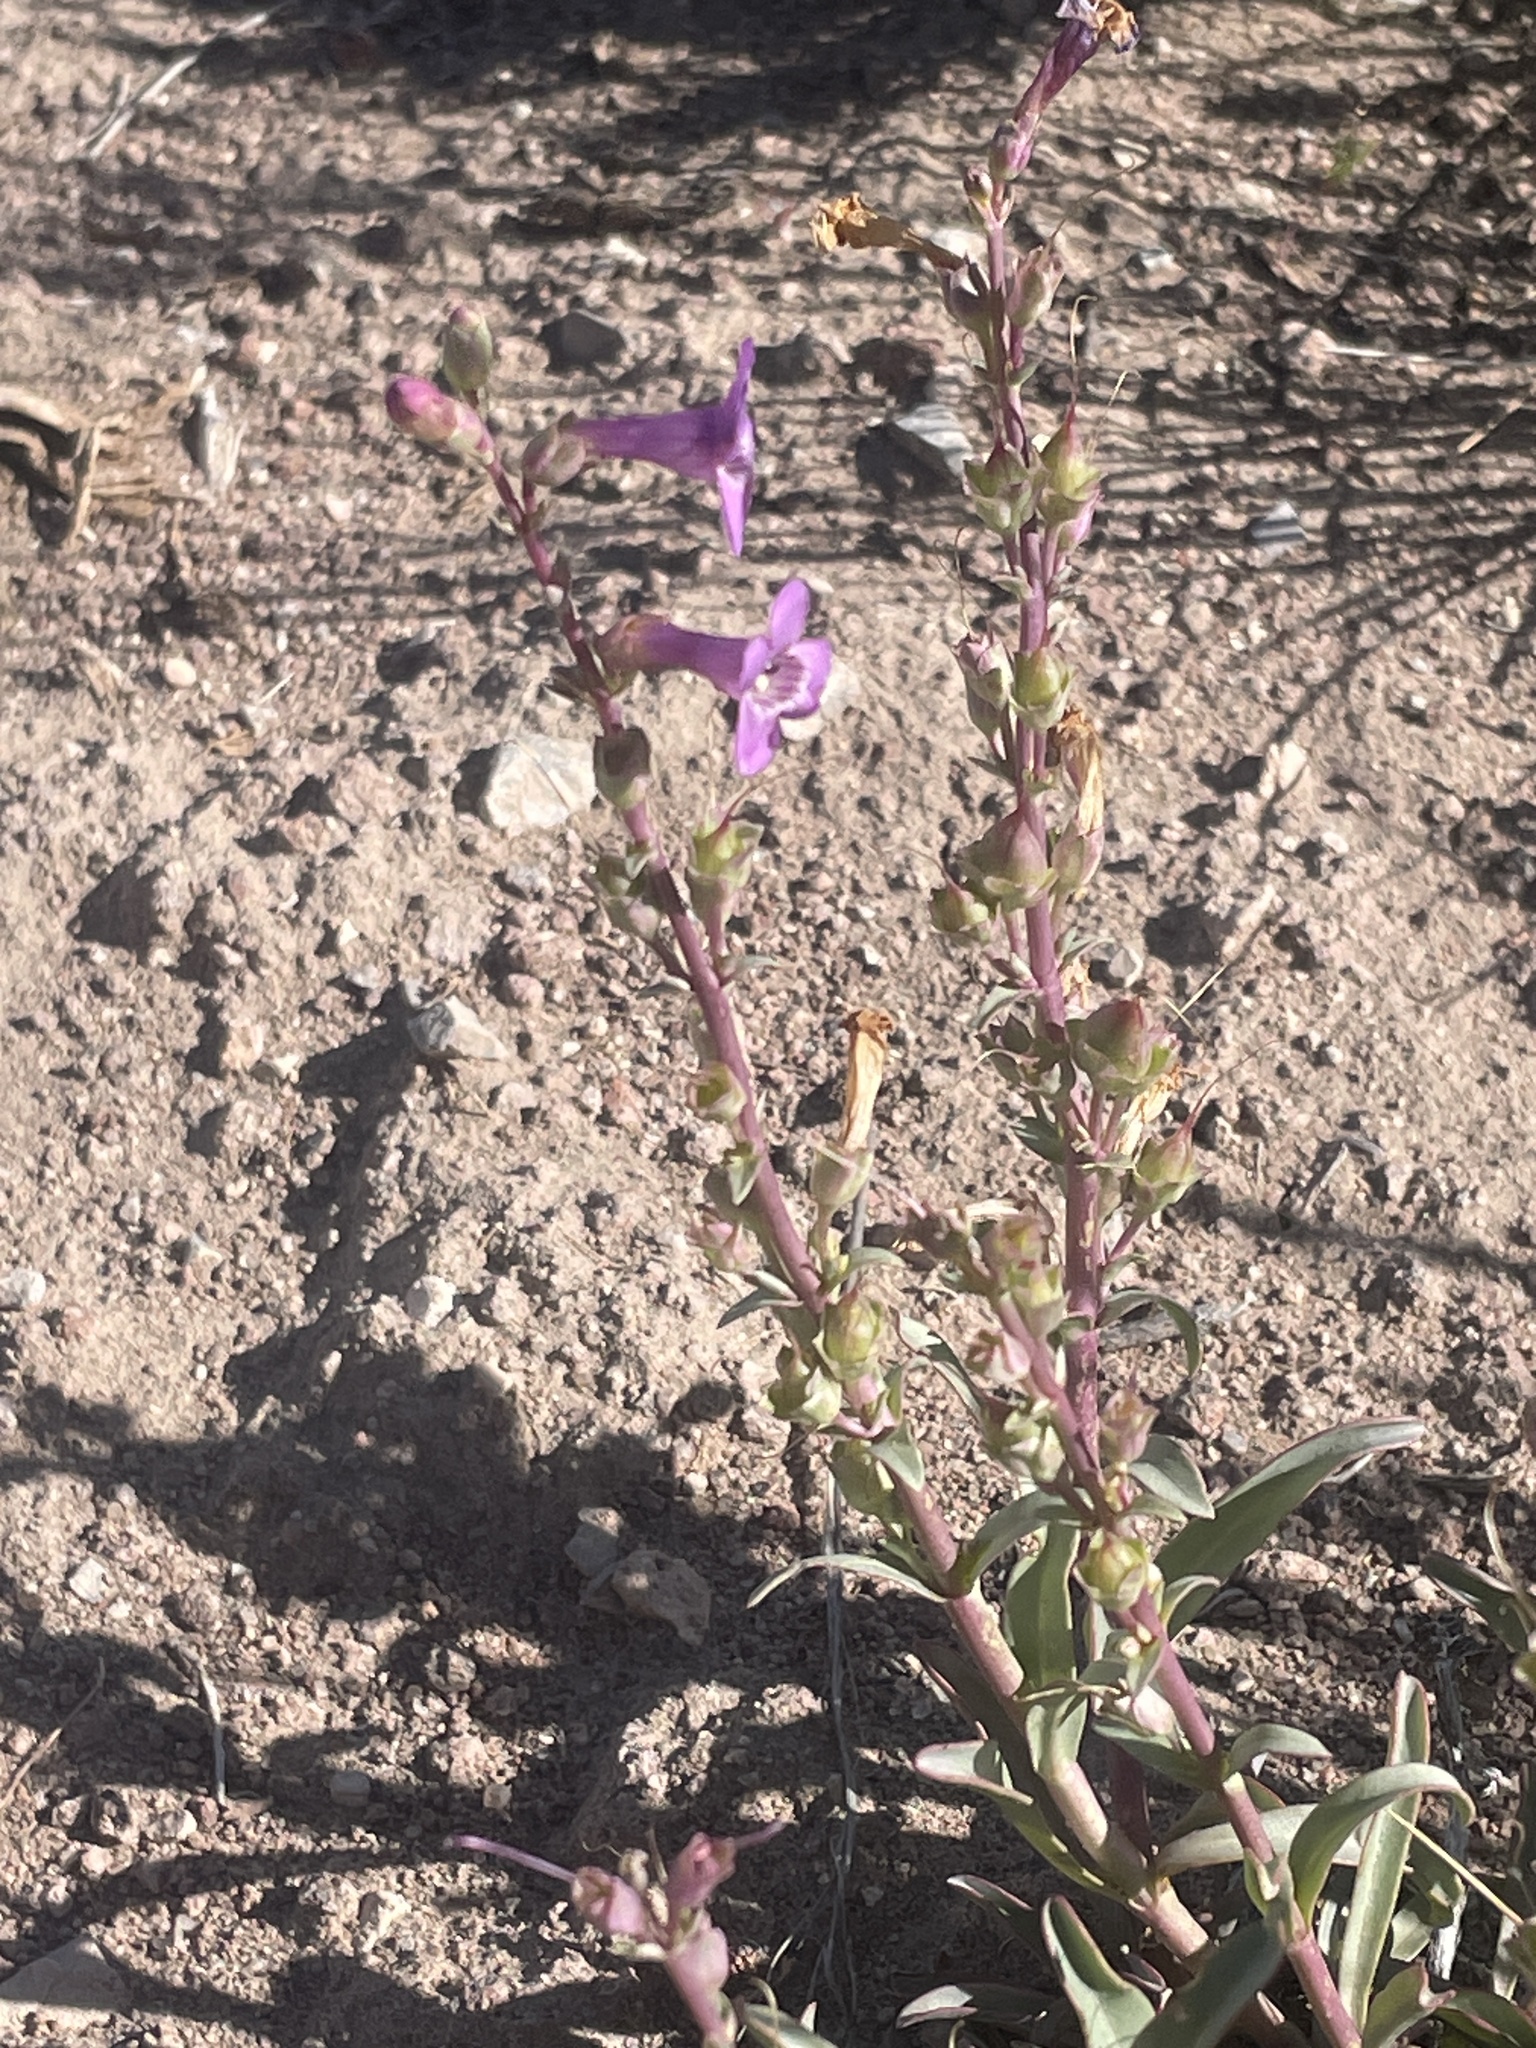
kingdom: Plantae
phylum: Tracheophyta
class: Magnoliopsida
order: Lamiales
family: Plantaginaceae
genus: Penstemon
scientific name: Penstemon confusus
